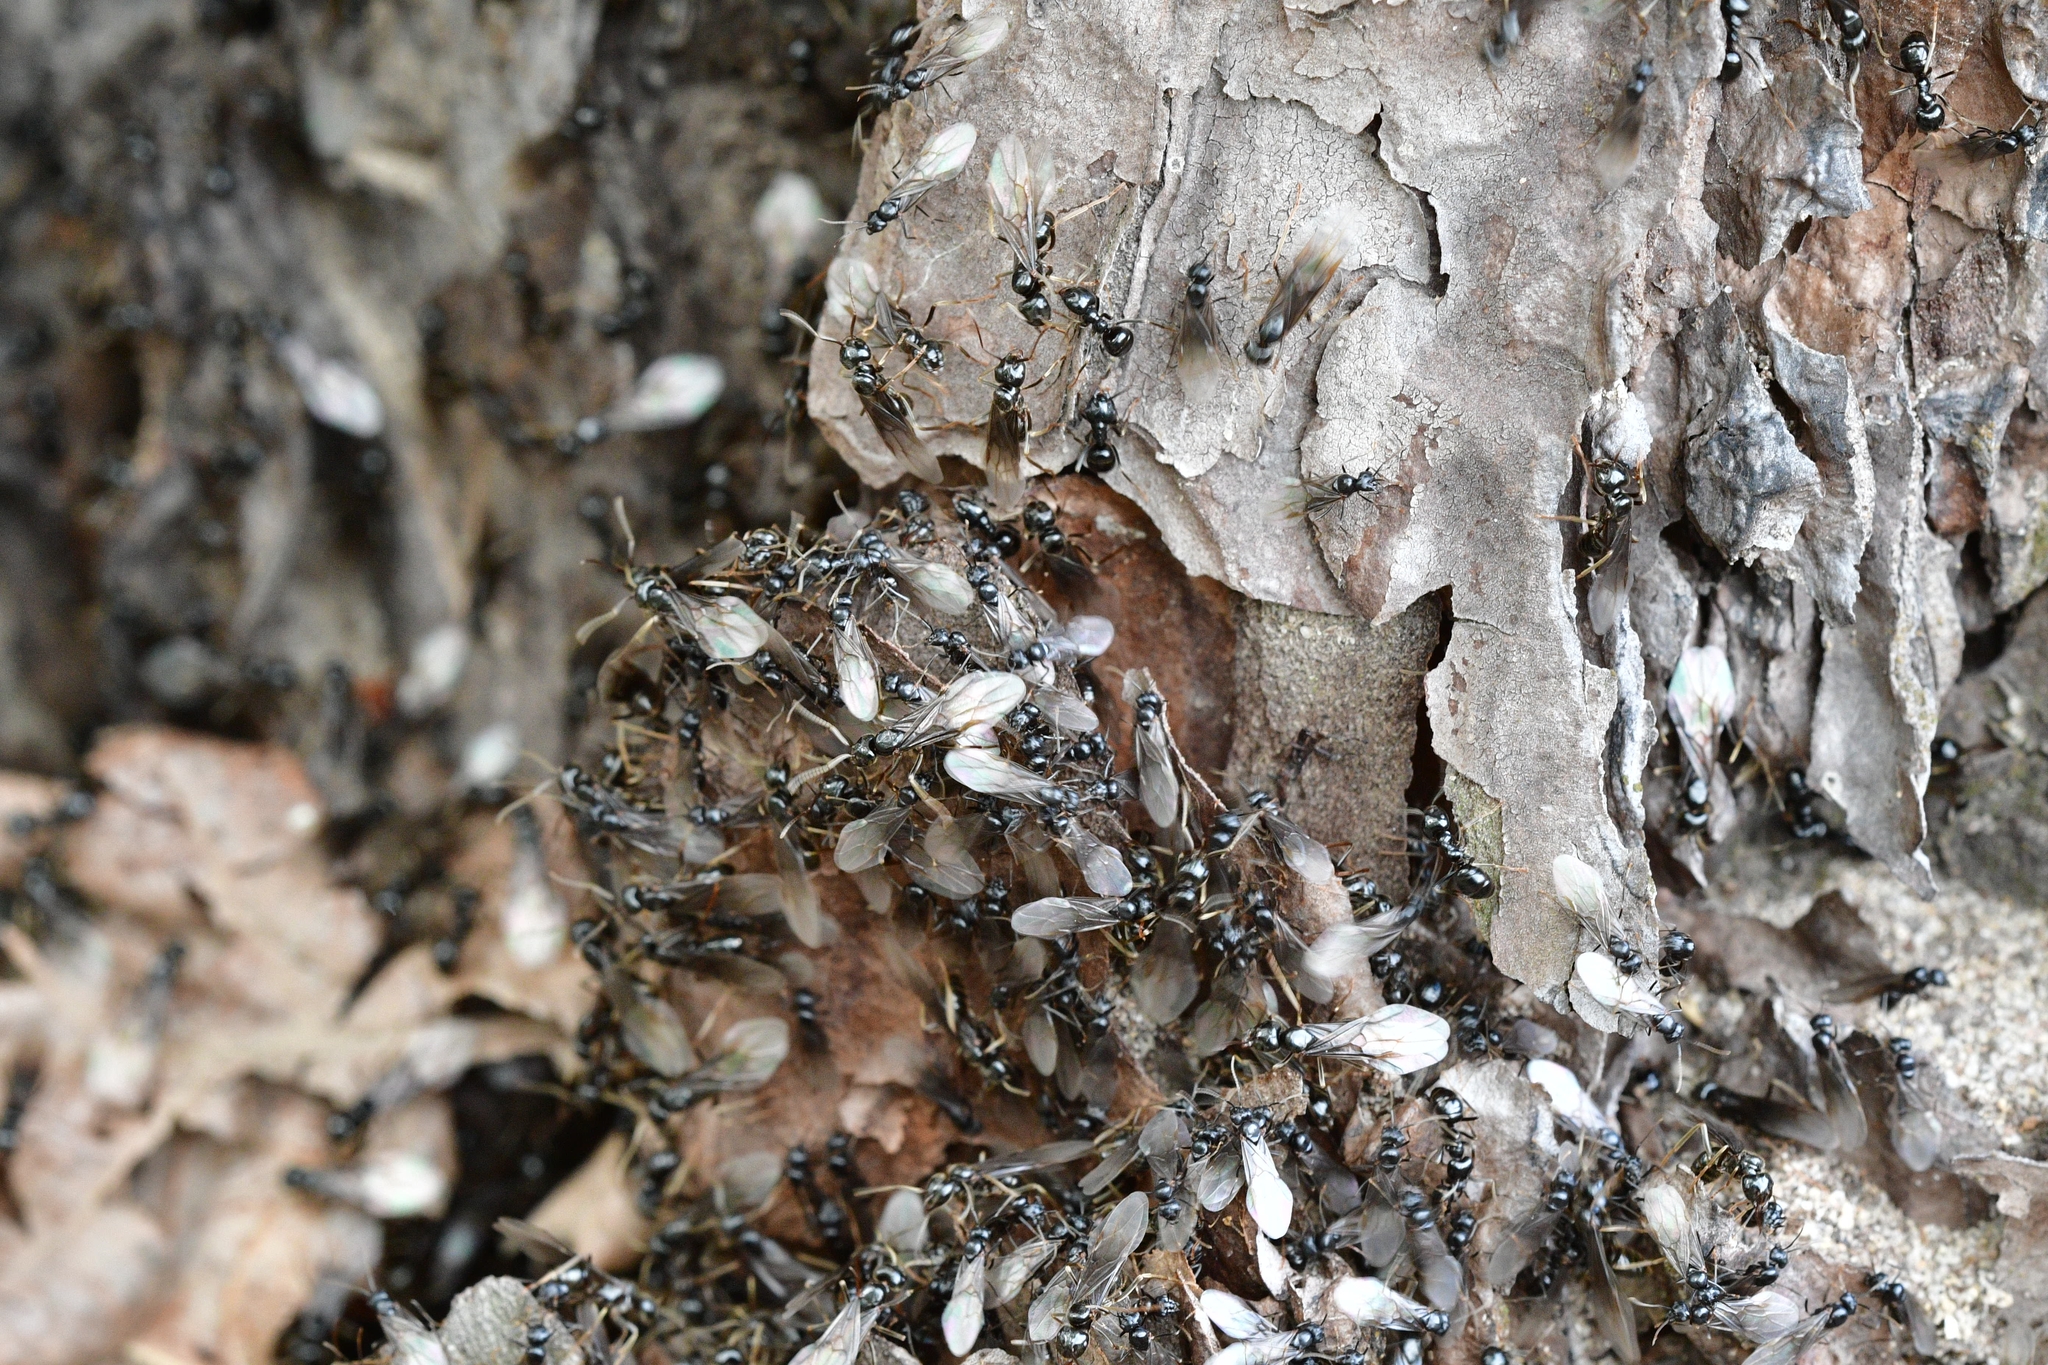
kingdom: Animalia
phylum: Arthropoda
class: Insecta
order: Hymenoptera
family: Formicidae
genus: Lasius
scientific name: Lasius fuliginosus
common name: Jet ant
